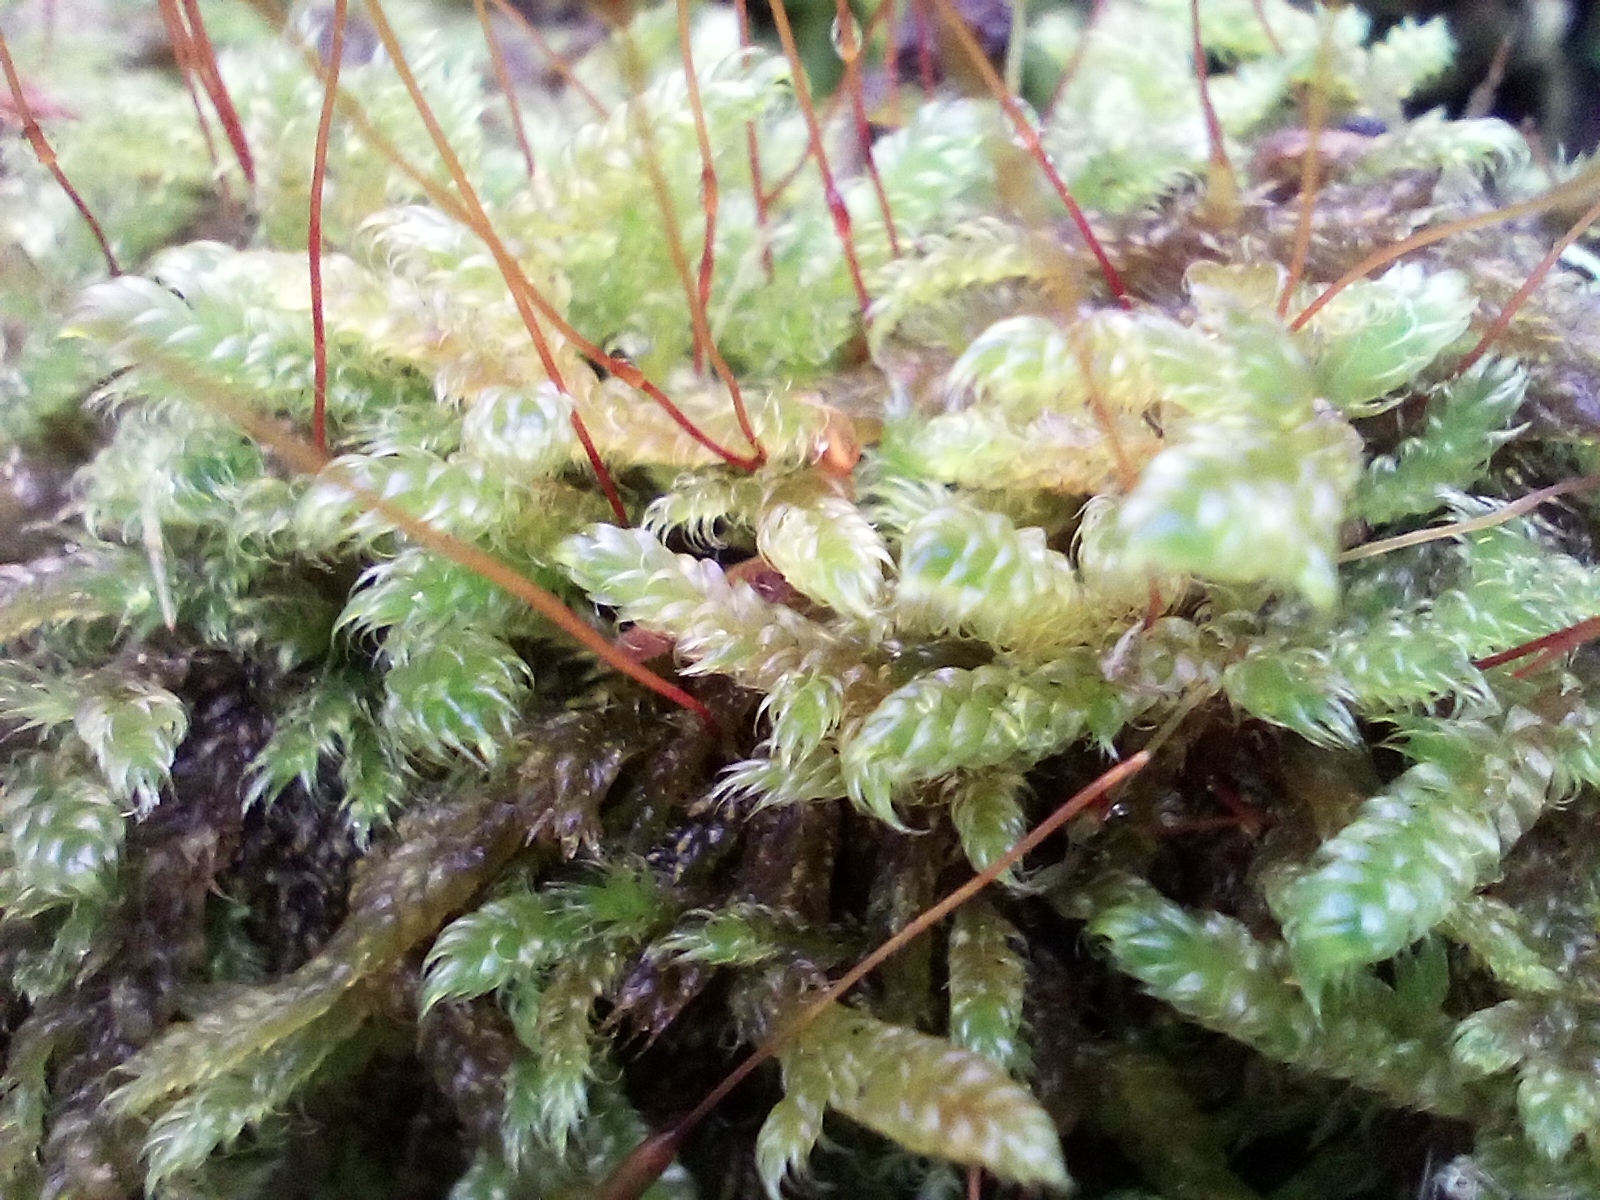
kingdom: Plantae
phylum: Bryophyta
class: Bryopsida
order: Hypnales
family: Hypnaceae
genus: Hypnum
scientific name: Hypnum cupressiforme
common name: Cypress-leaved plait-moss
